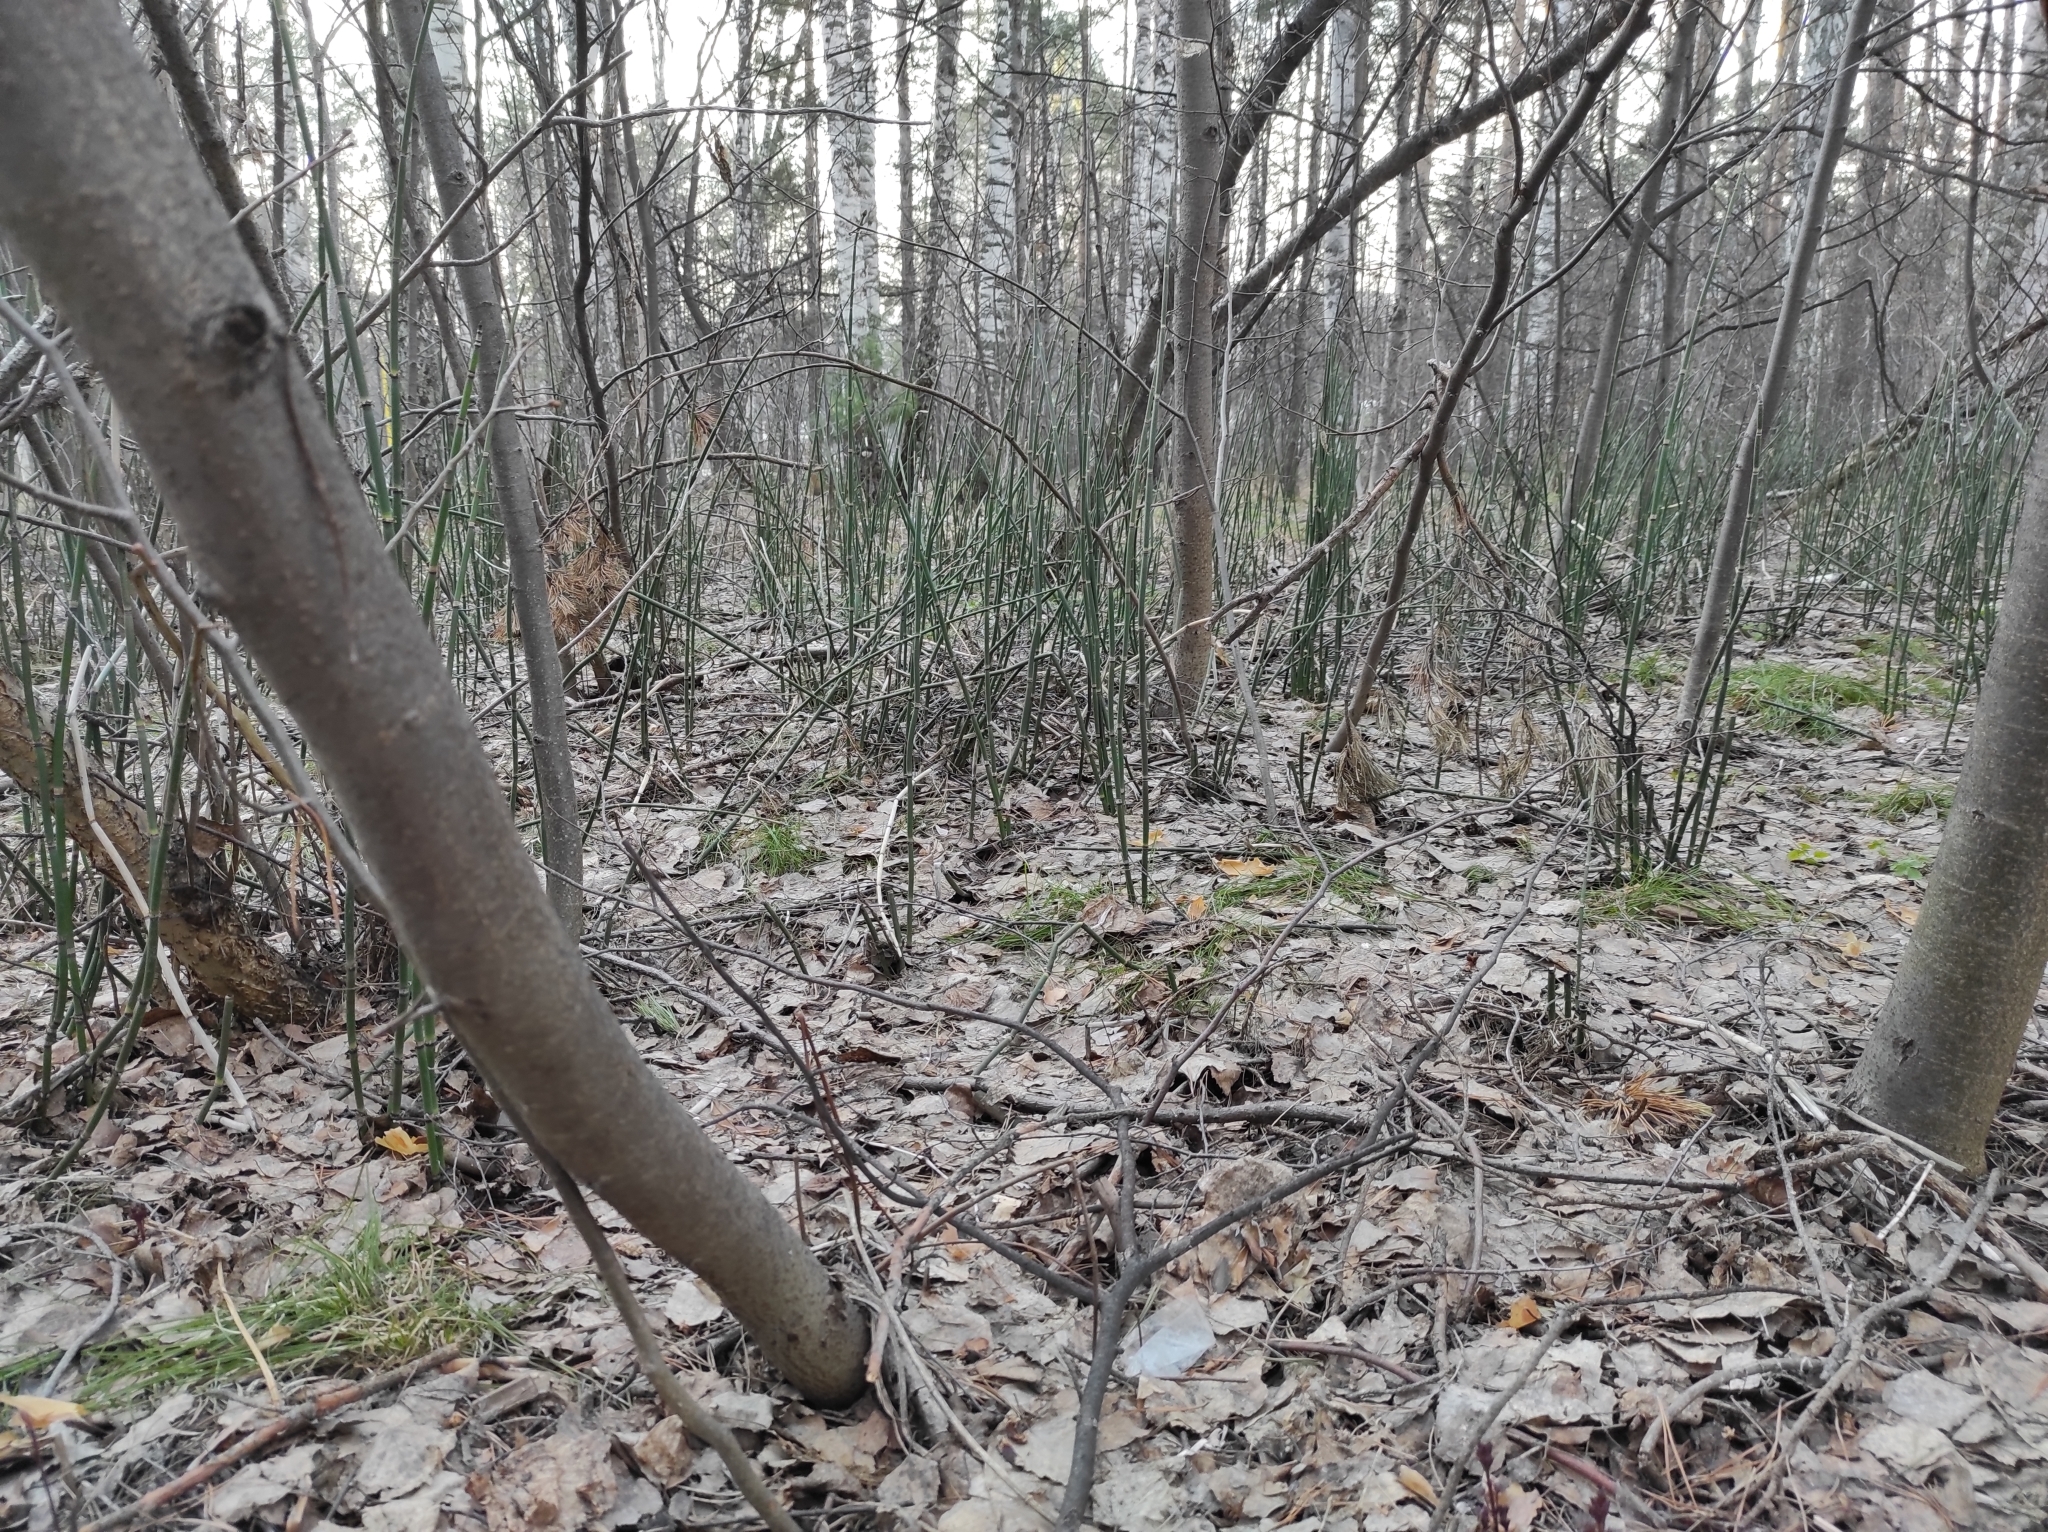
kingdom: Plantae
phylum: Tracheophyta
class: Polypodiopsida
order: Equisetales
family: Equisetaceae
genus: Equisetum
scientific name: Equisetum hyemale
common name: Rough horsetail
